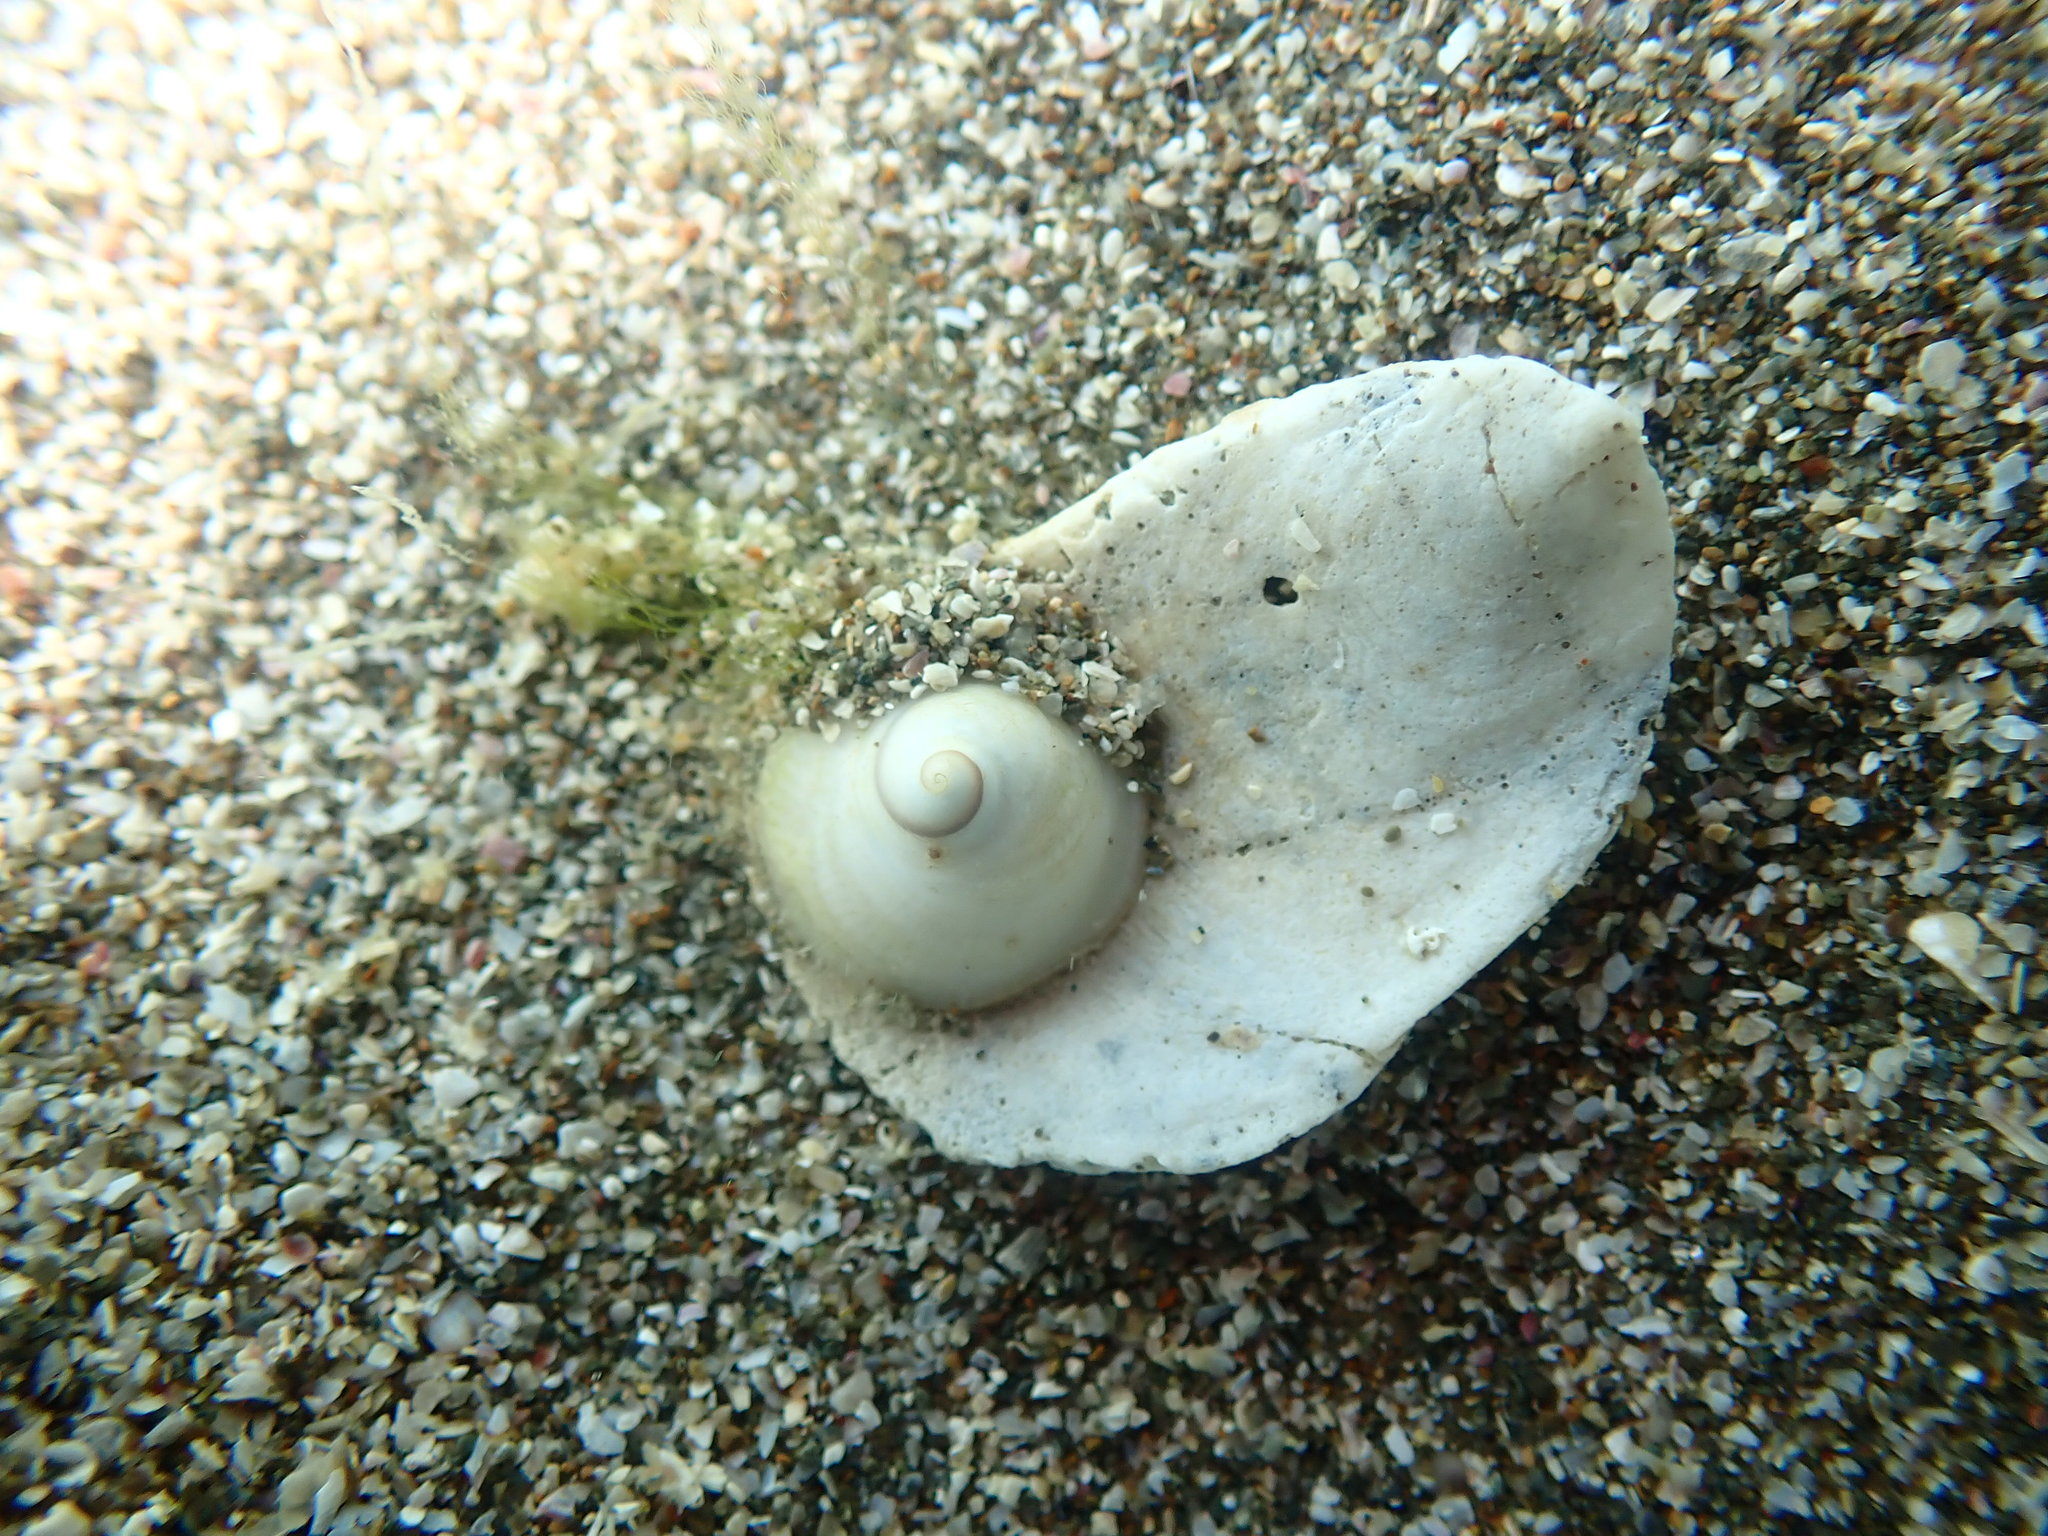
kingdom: Animalia
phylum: Mollusca
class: Gastropoda
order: Littorinimorpha
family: Calyptraeidae
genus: Sigapatella
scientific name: Sigapatella tenuis
